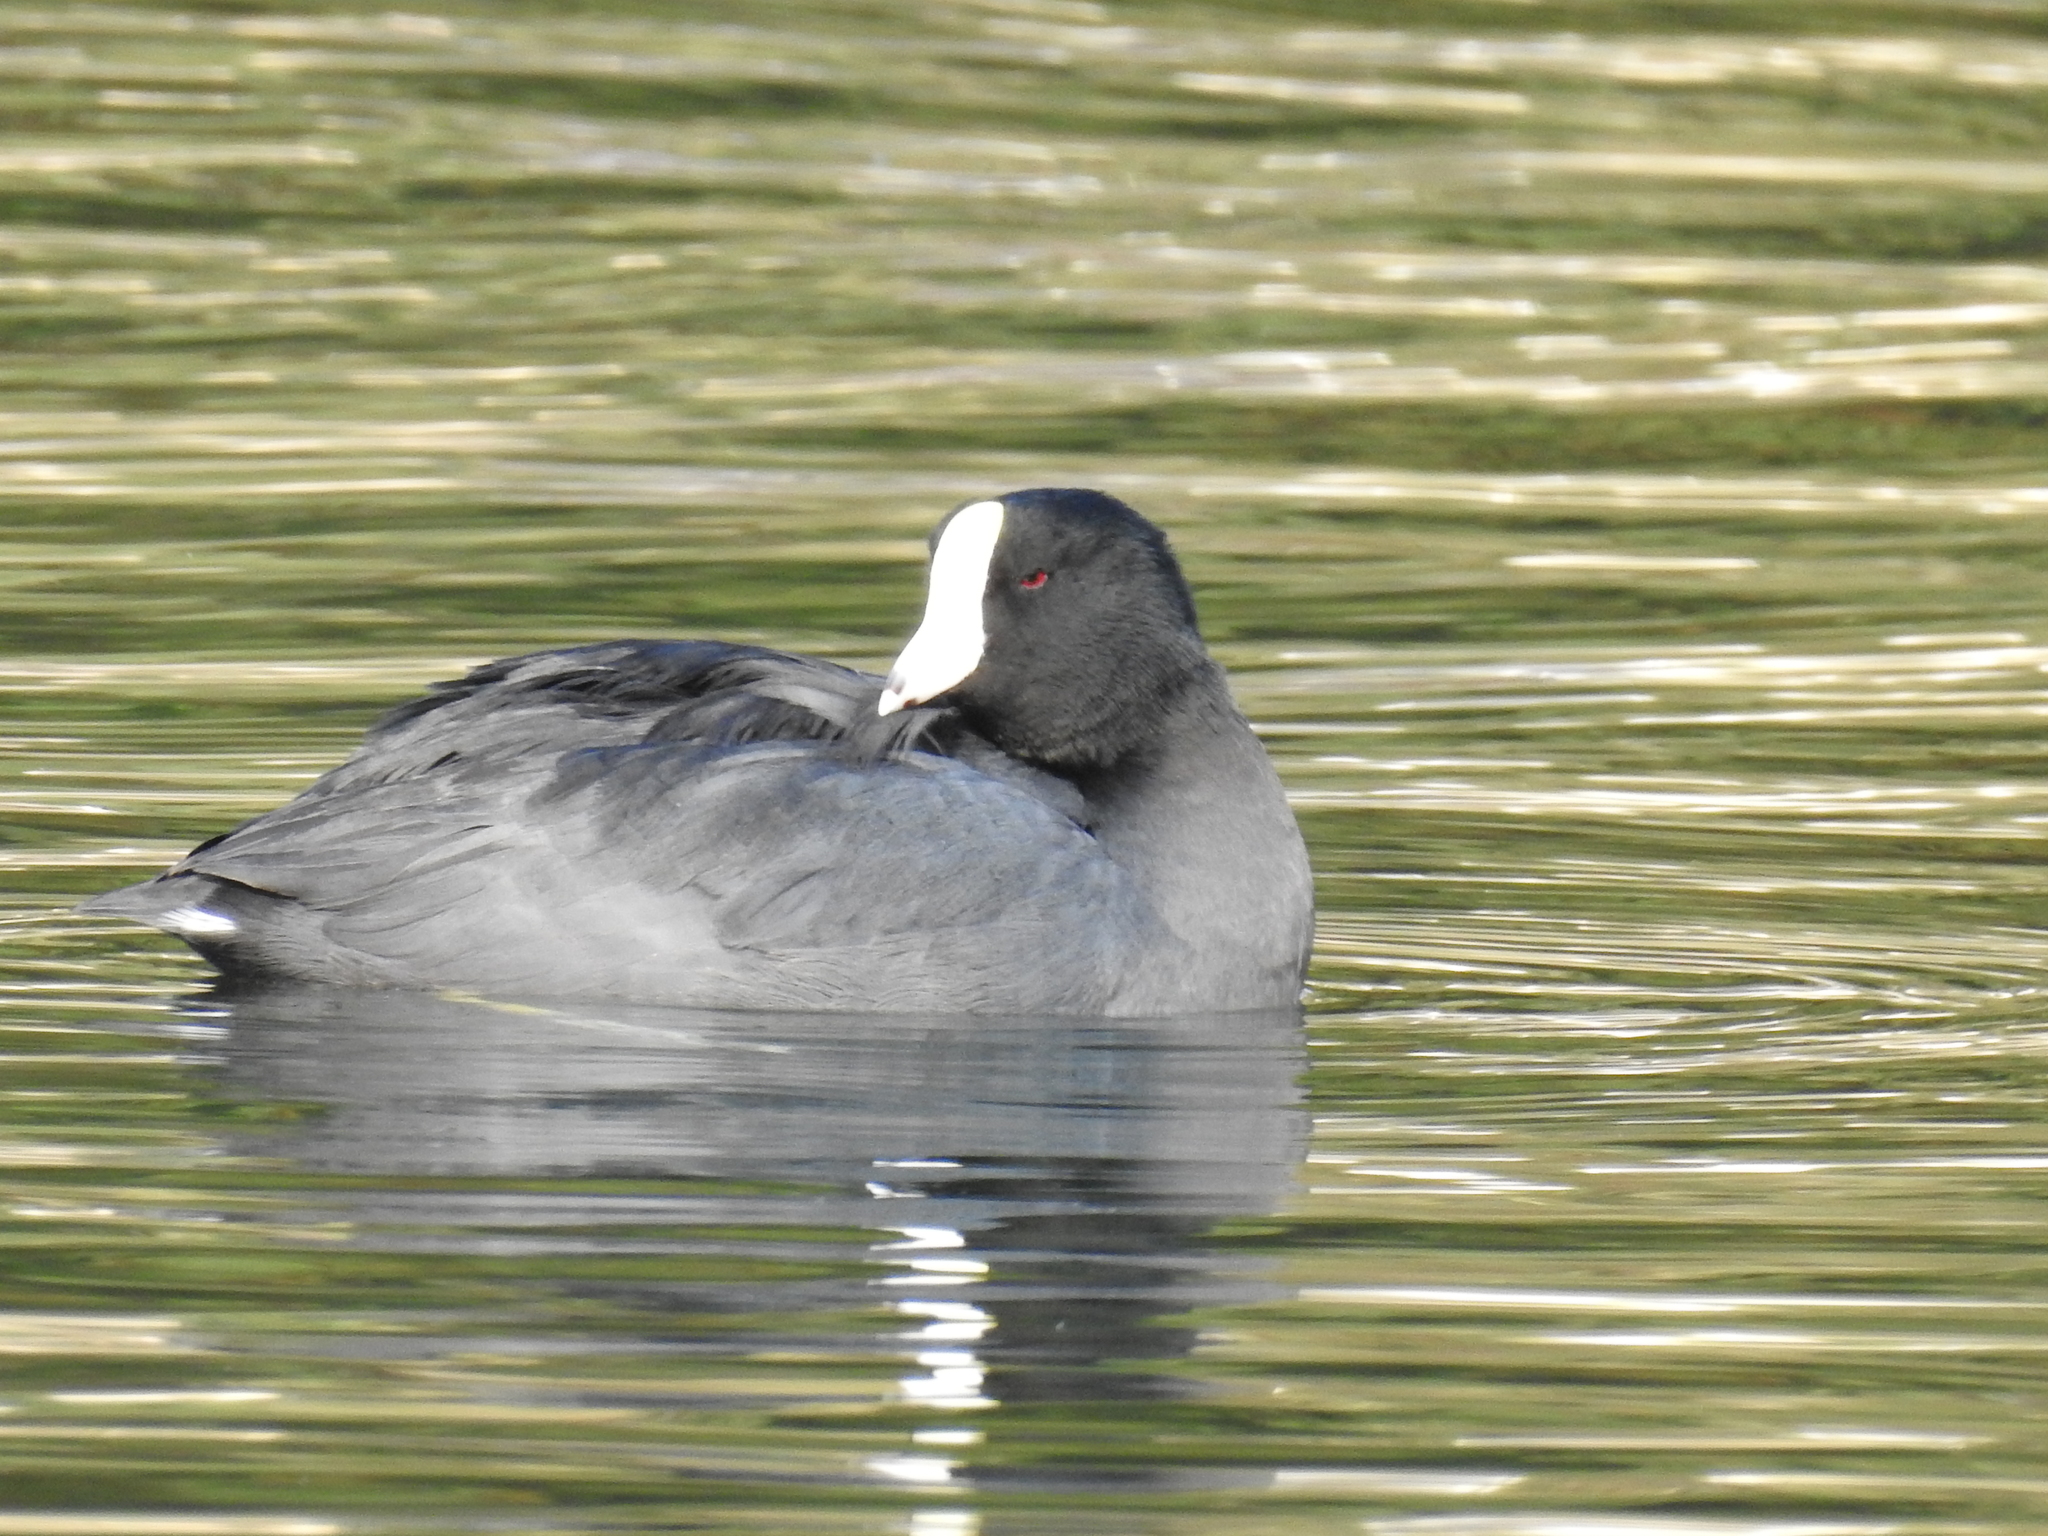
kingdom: Animalia
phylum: Chordata
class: Aves
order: Gruiformes
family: Rallidae
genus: Fulica
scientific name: Fulica americana
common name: American coot
